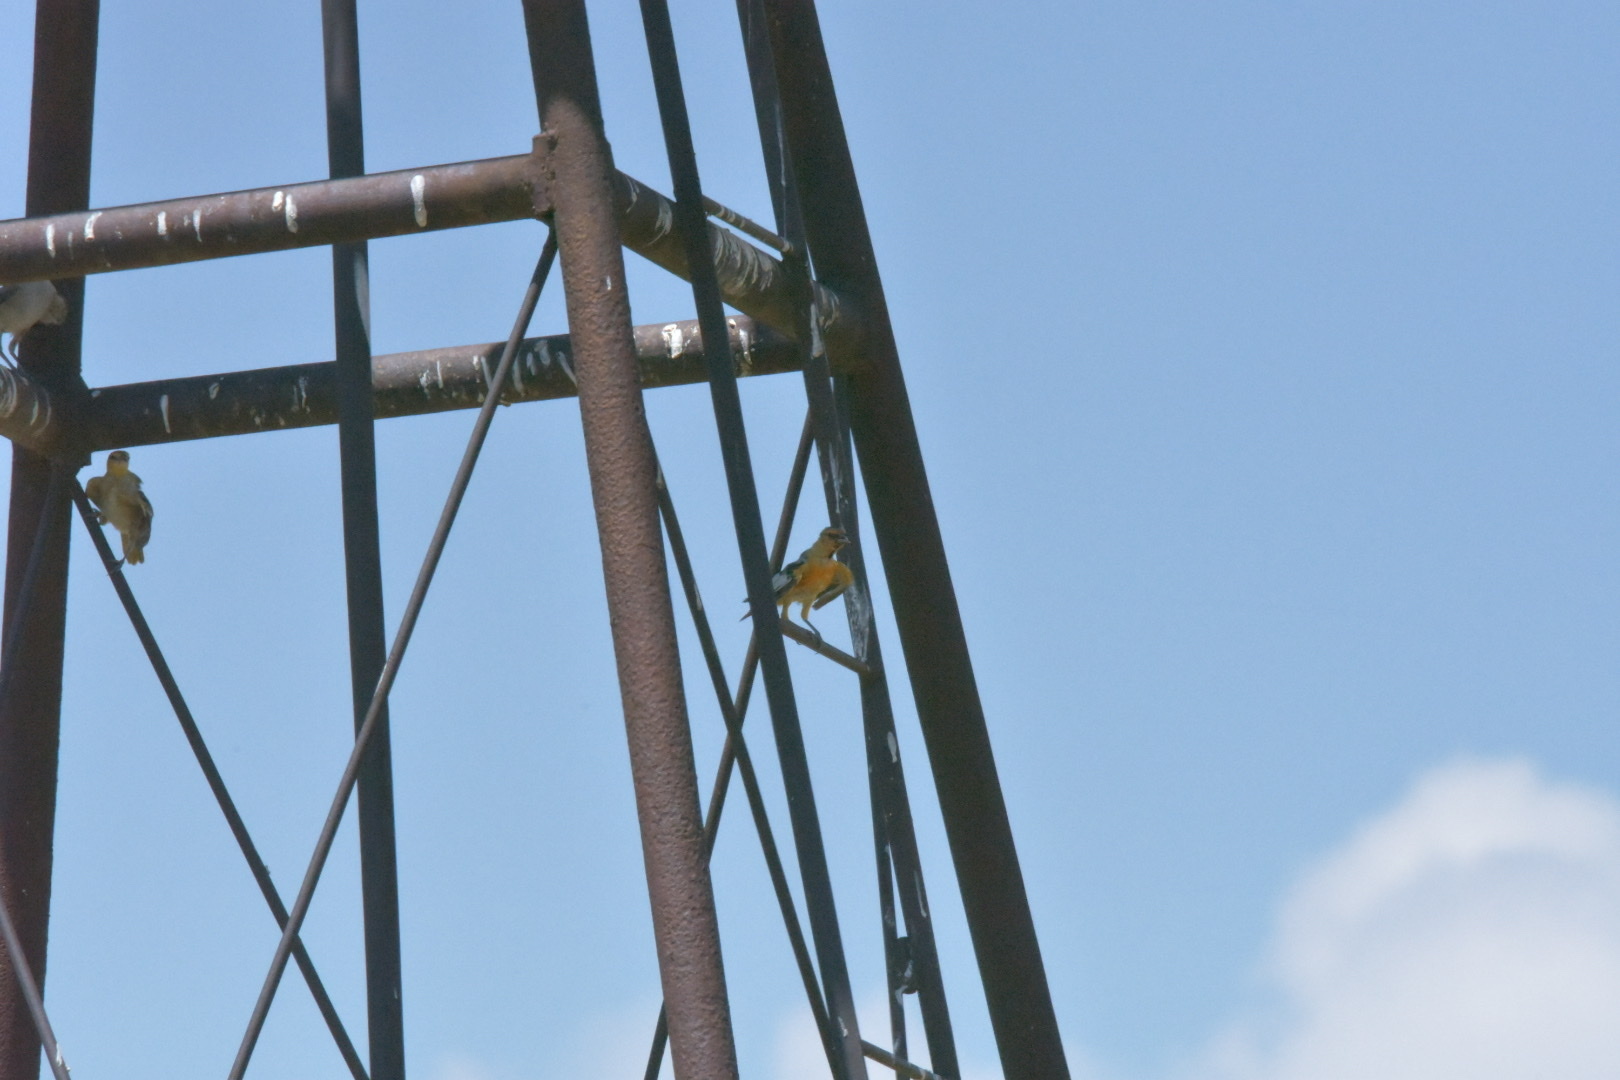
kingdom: Animalia
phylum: Chordata
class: Aves
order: Passeriformes
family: Icteridae
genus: Icterus
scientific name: Icterus bullockii
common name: Bullock's oriole
